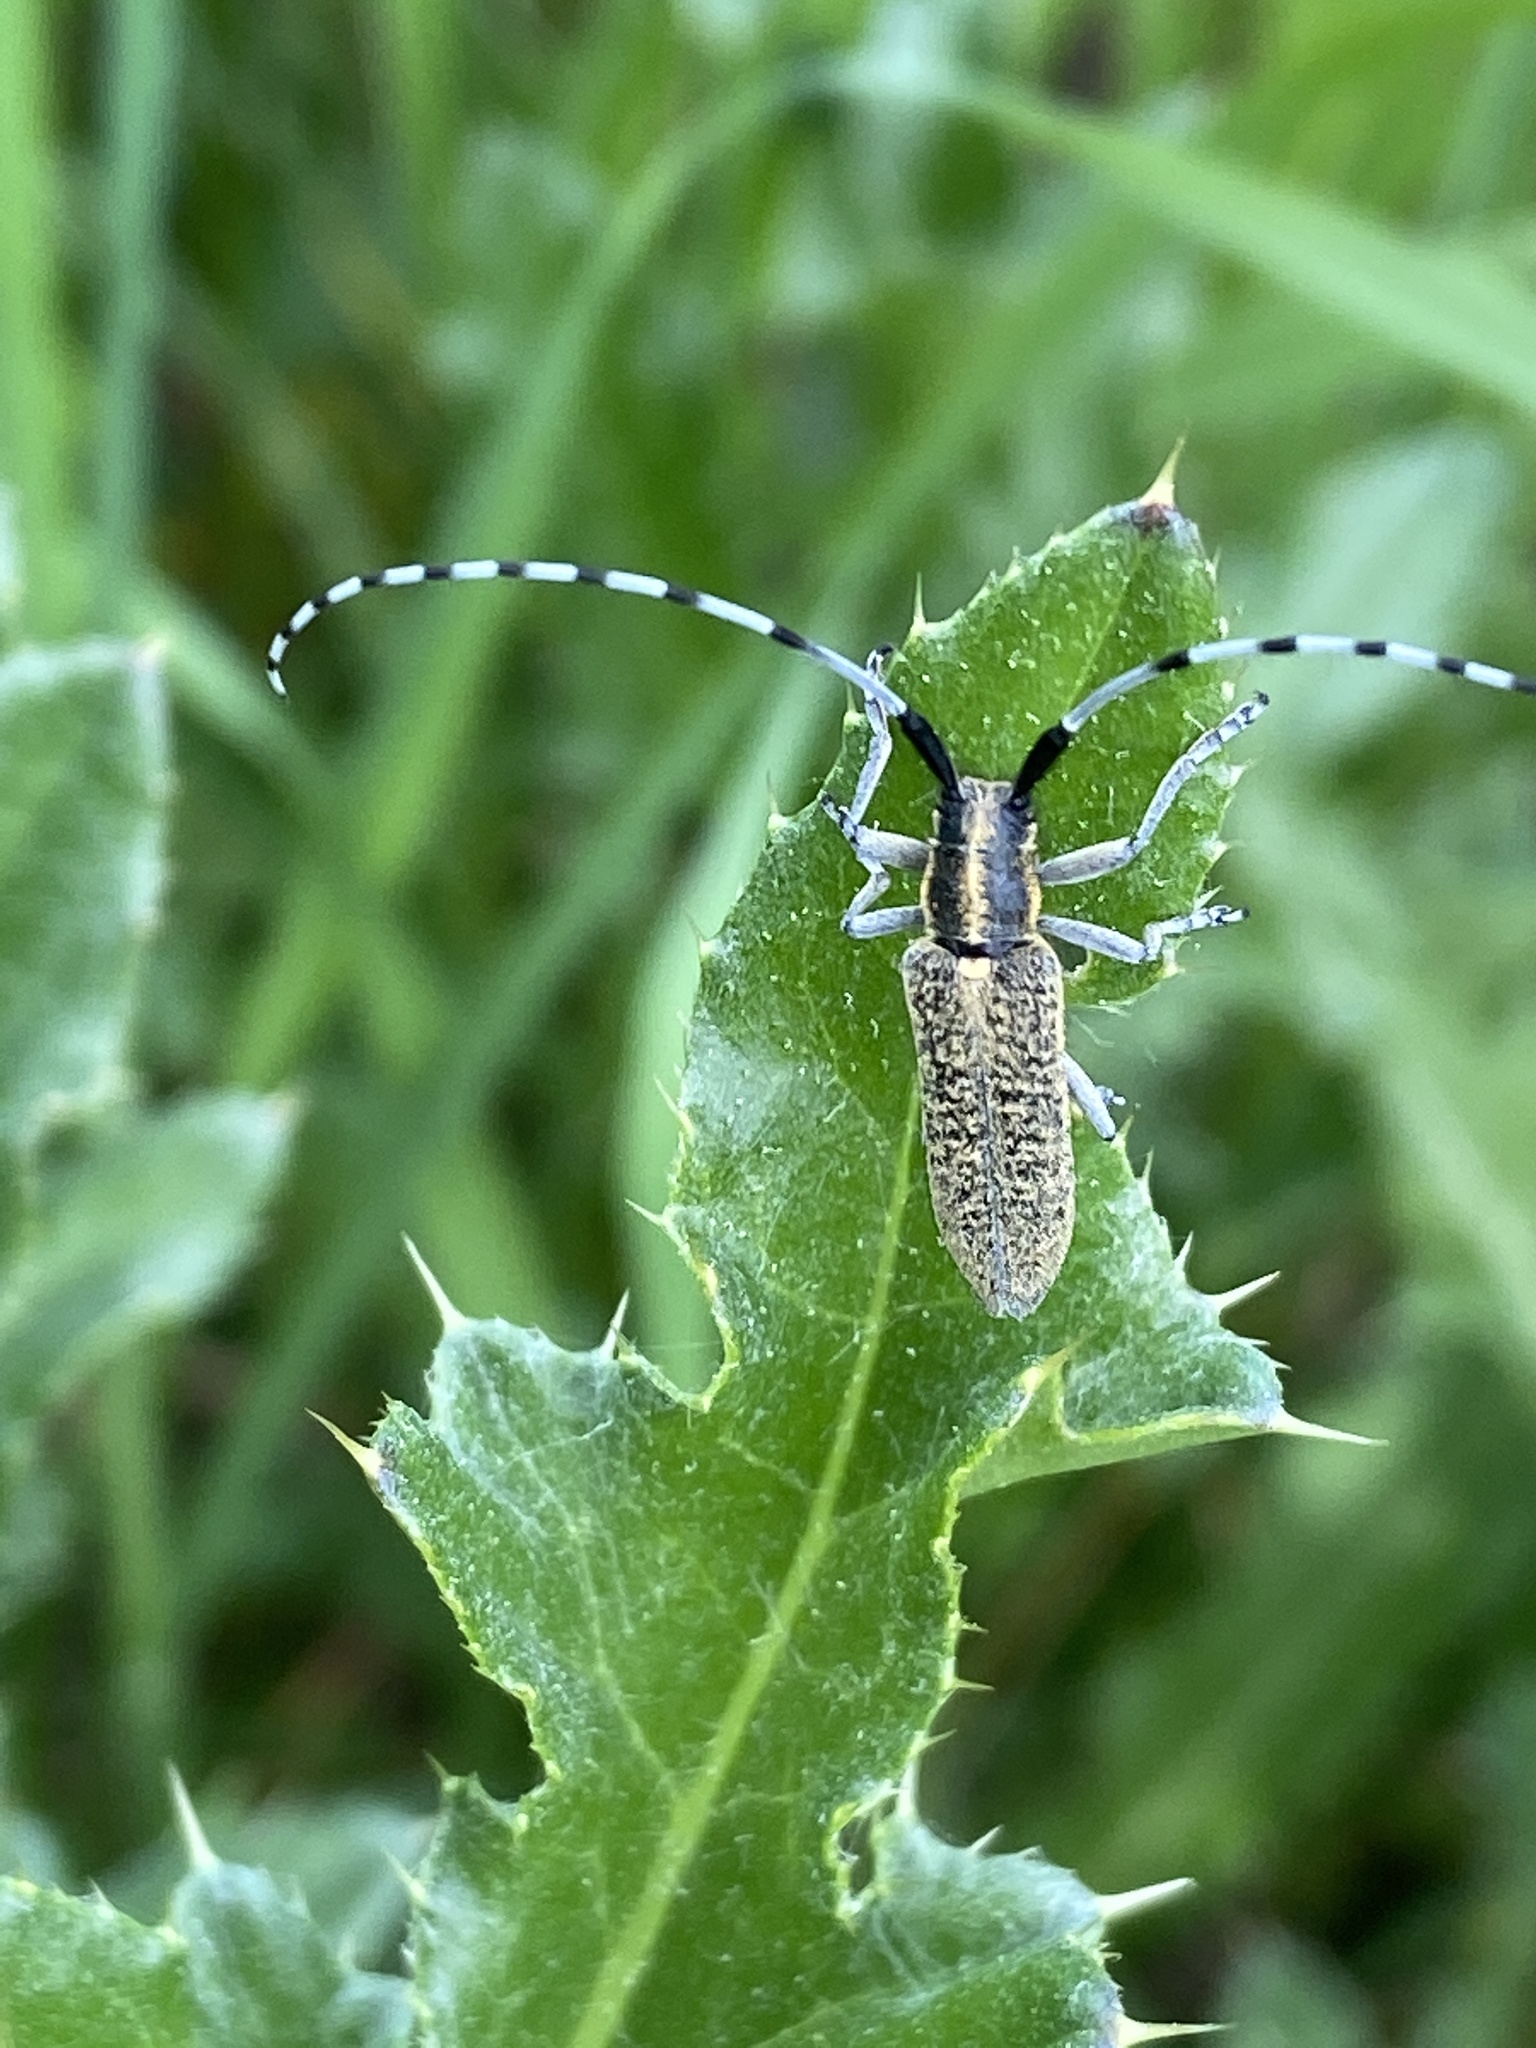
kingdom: Animalia
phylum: Arthropoda
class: Insecta
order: Coleoptera
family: Cerambycidae
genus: Agapanthia
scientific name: Agapanthia villosoviridescens
